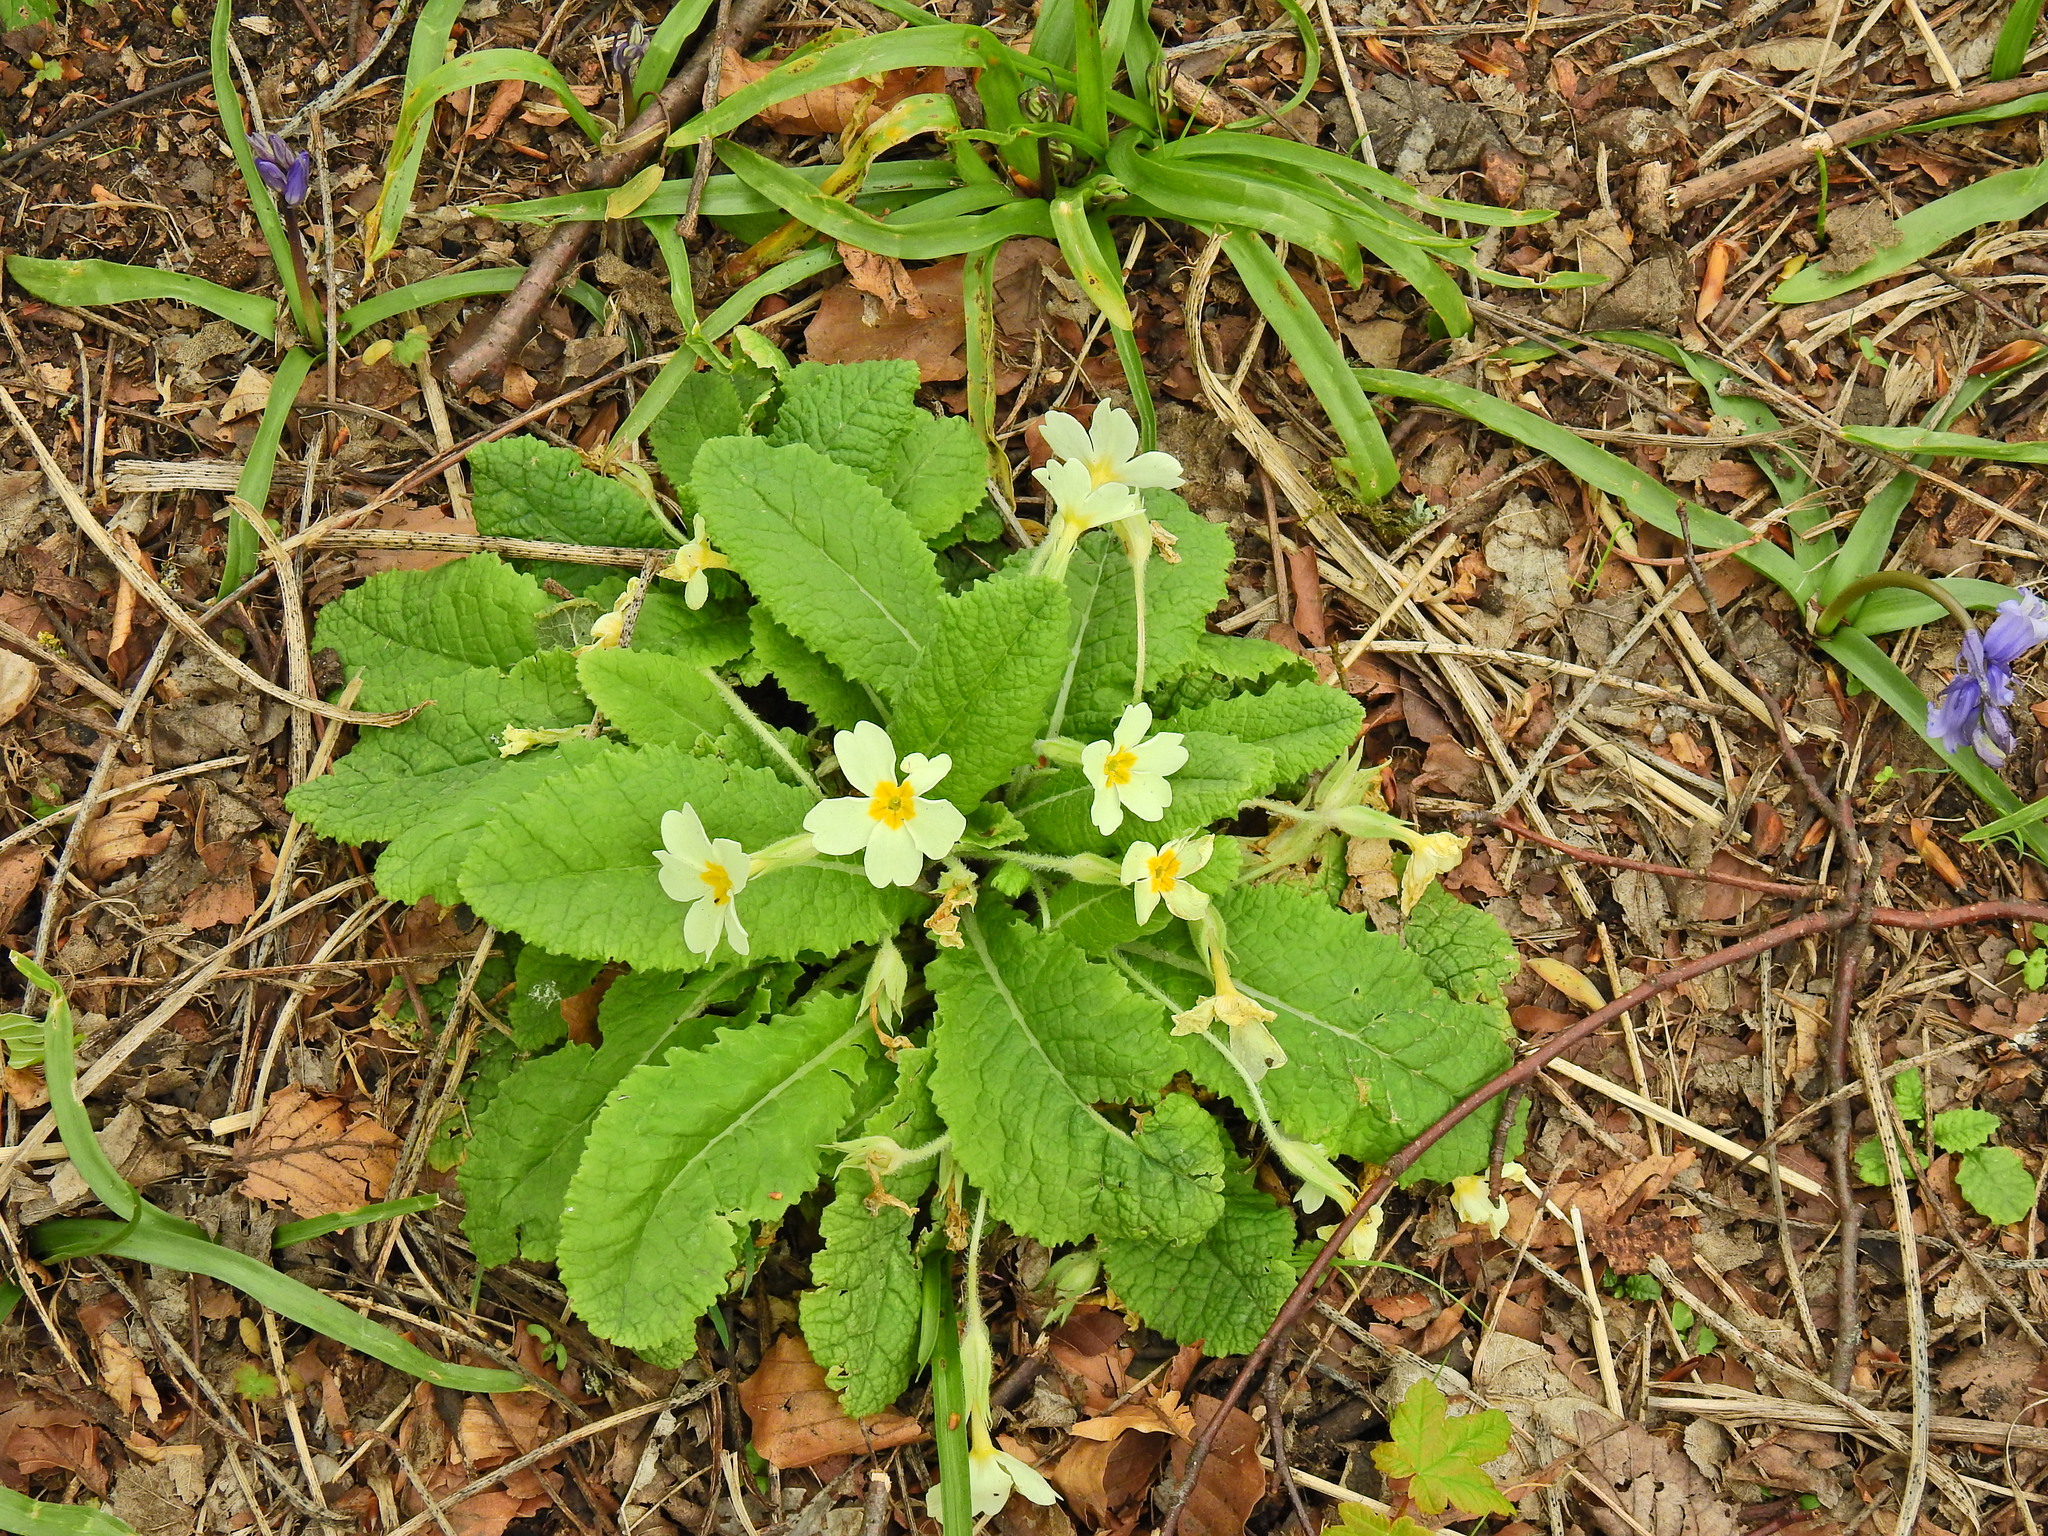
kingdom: Plantae
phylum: Tracheophyta
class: Magnoliopsida
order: Ericales
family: Primulaceae
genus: Primula
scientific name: Primula vulgaris
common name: Primrose
